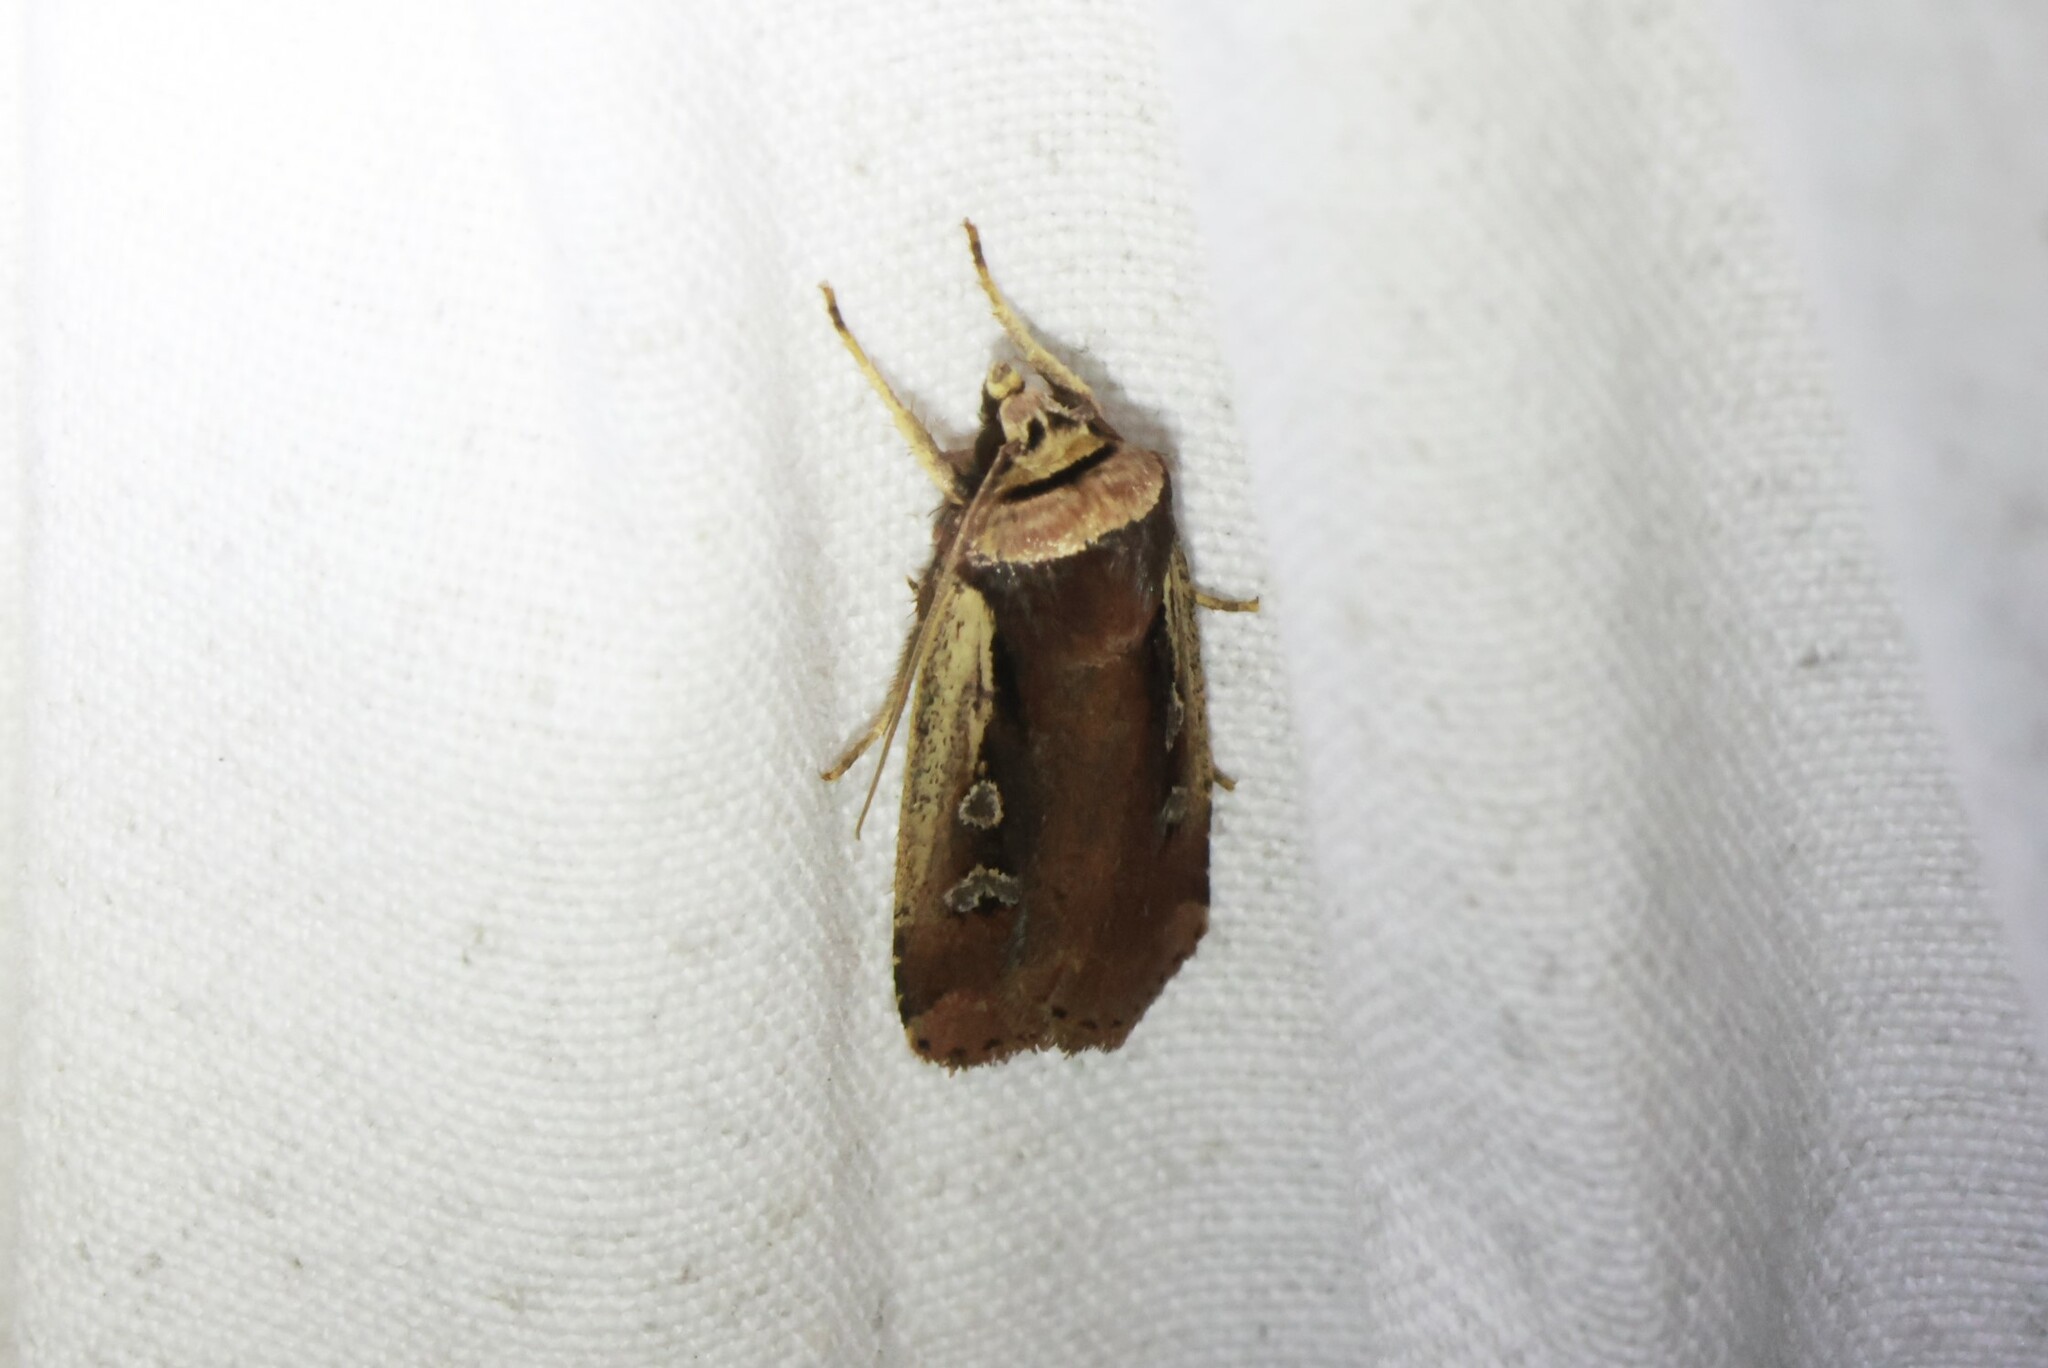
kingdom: Animalia
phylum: Arthropoda
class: Insecta
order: Lepidoptera
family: Noctuidae
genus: Ochropleura
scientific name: Ochropleura implecta
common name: Flame-shouldered dart
